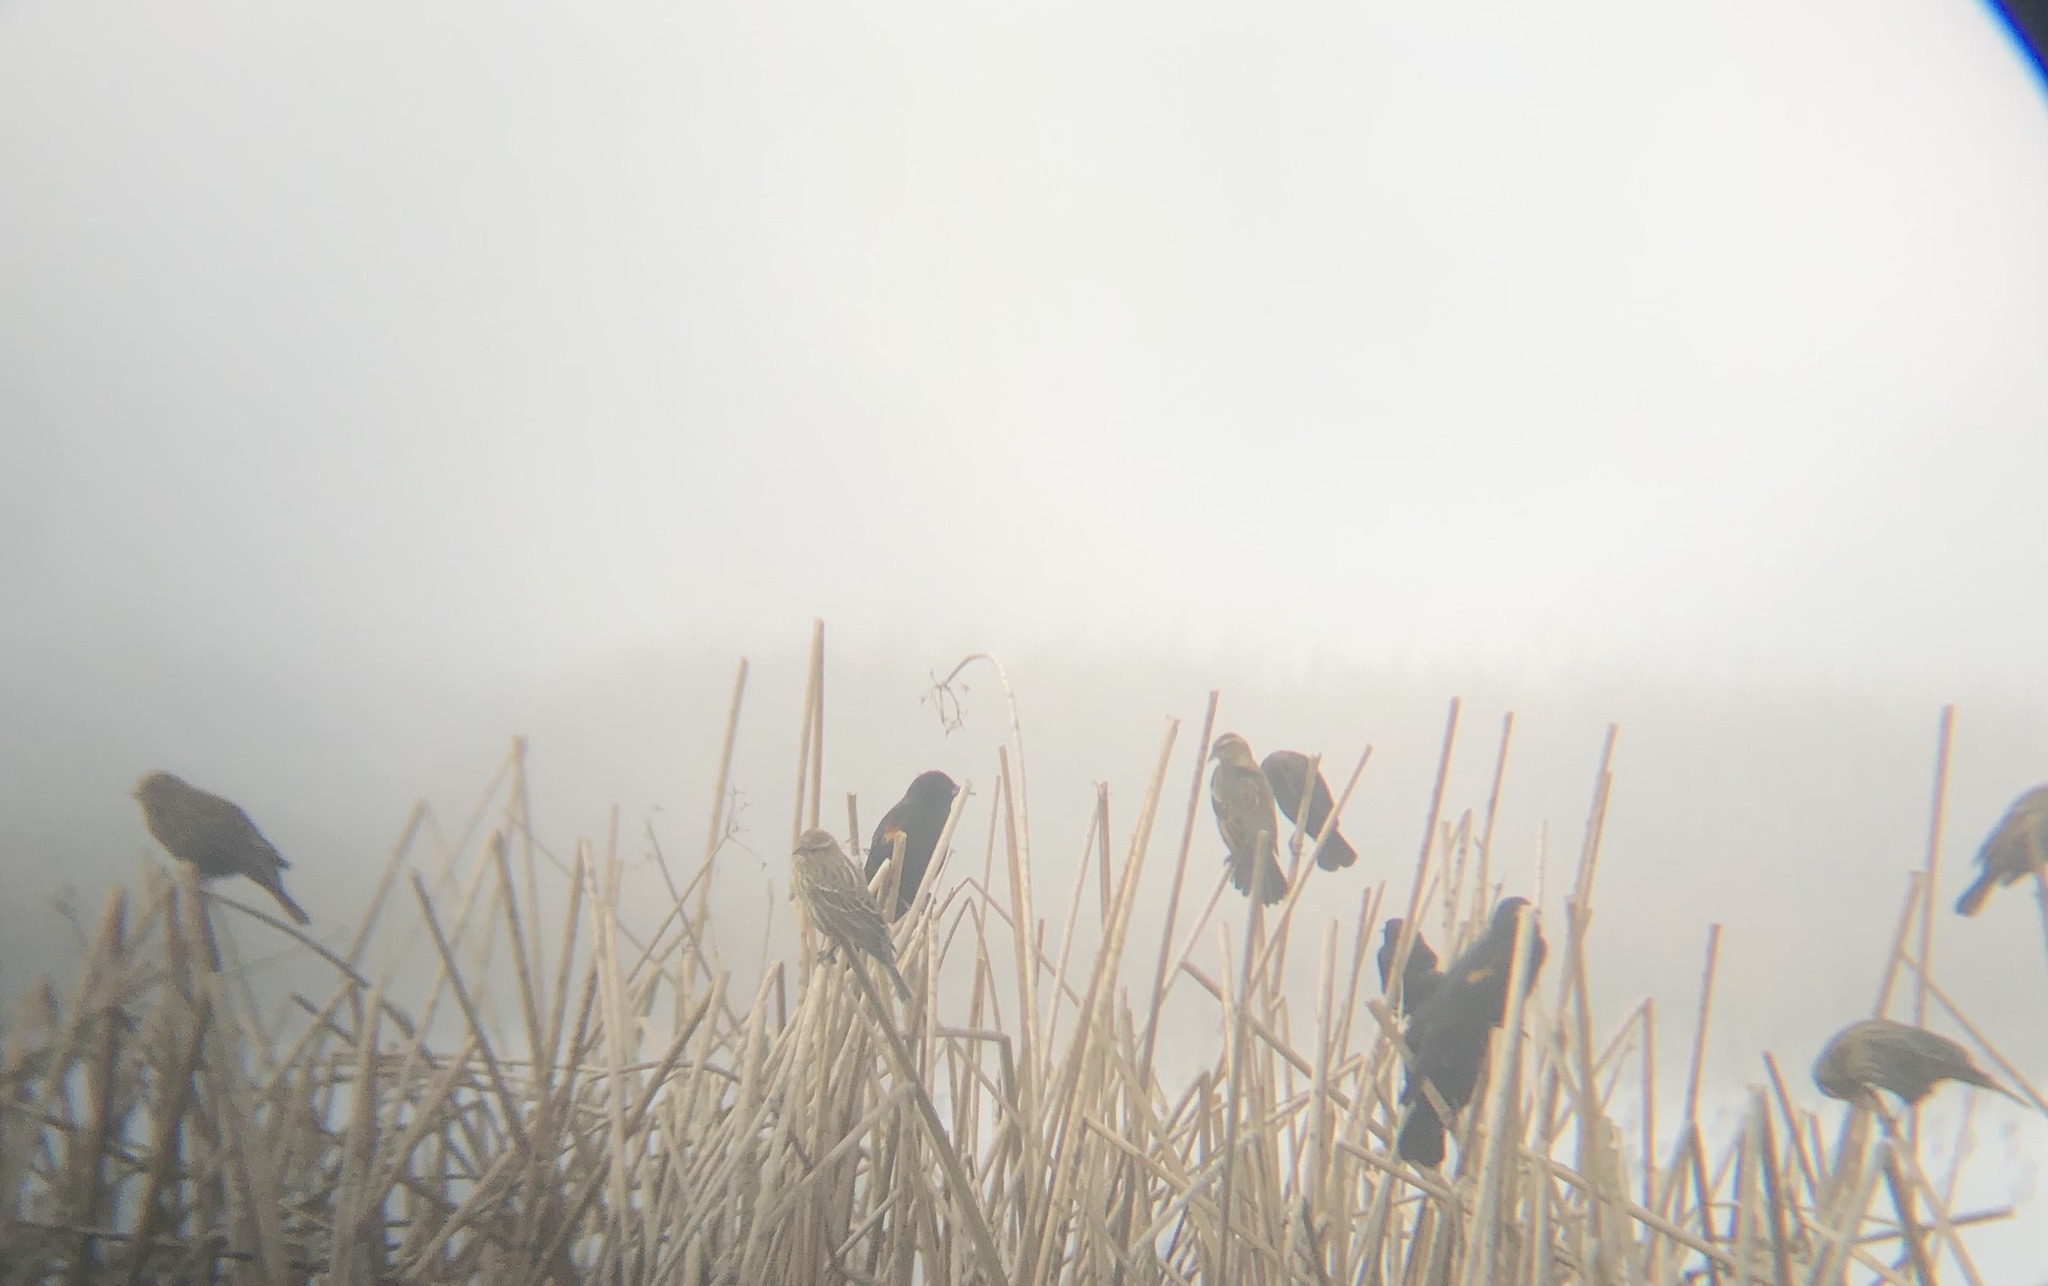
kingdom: Animalia
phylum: Chordata
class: Aves
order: Passeriformes
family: Icteridae
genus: Agelaius
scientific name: Agelaius phoeniceus
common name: Red-winged blackbird
